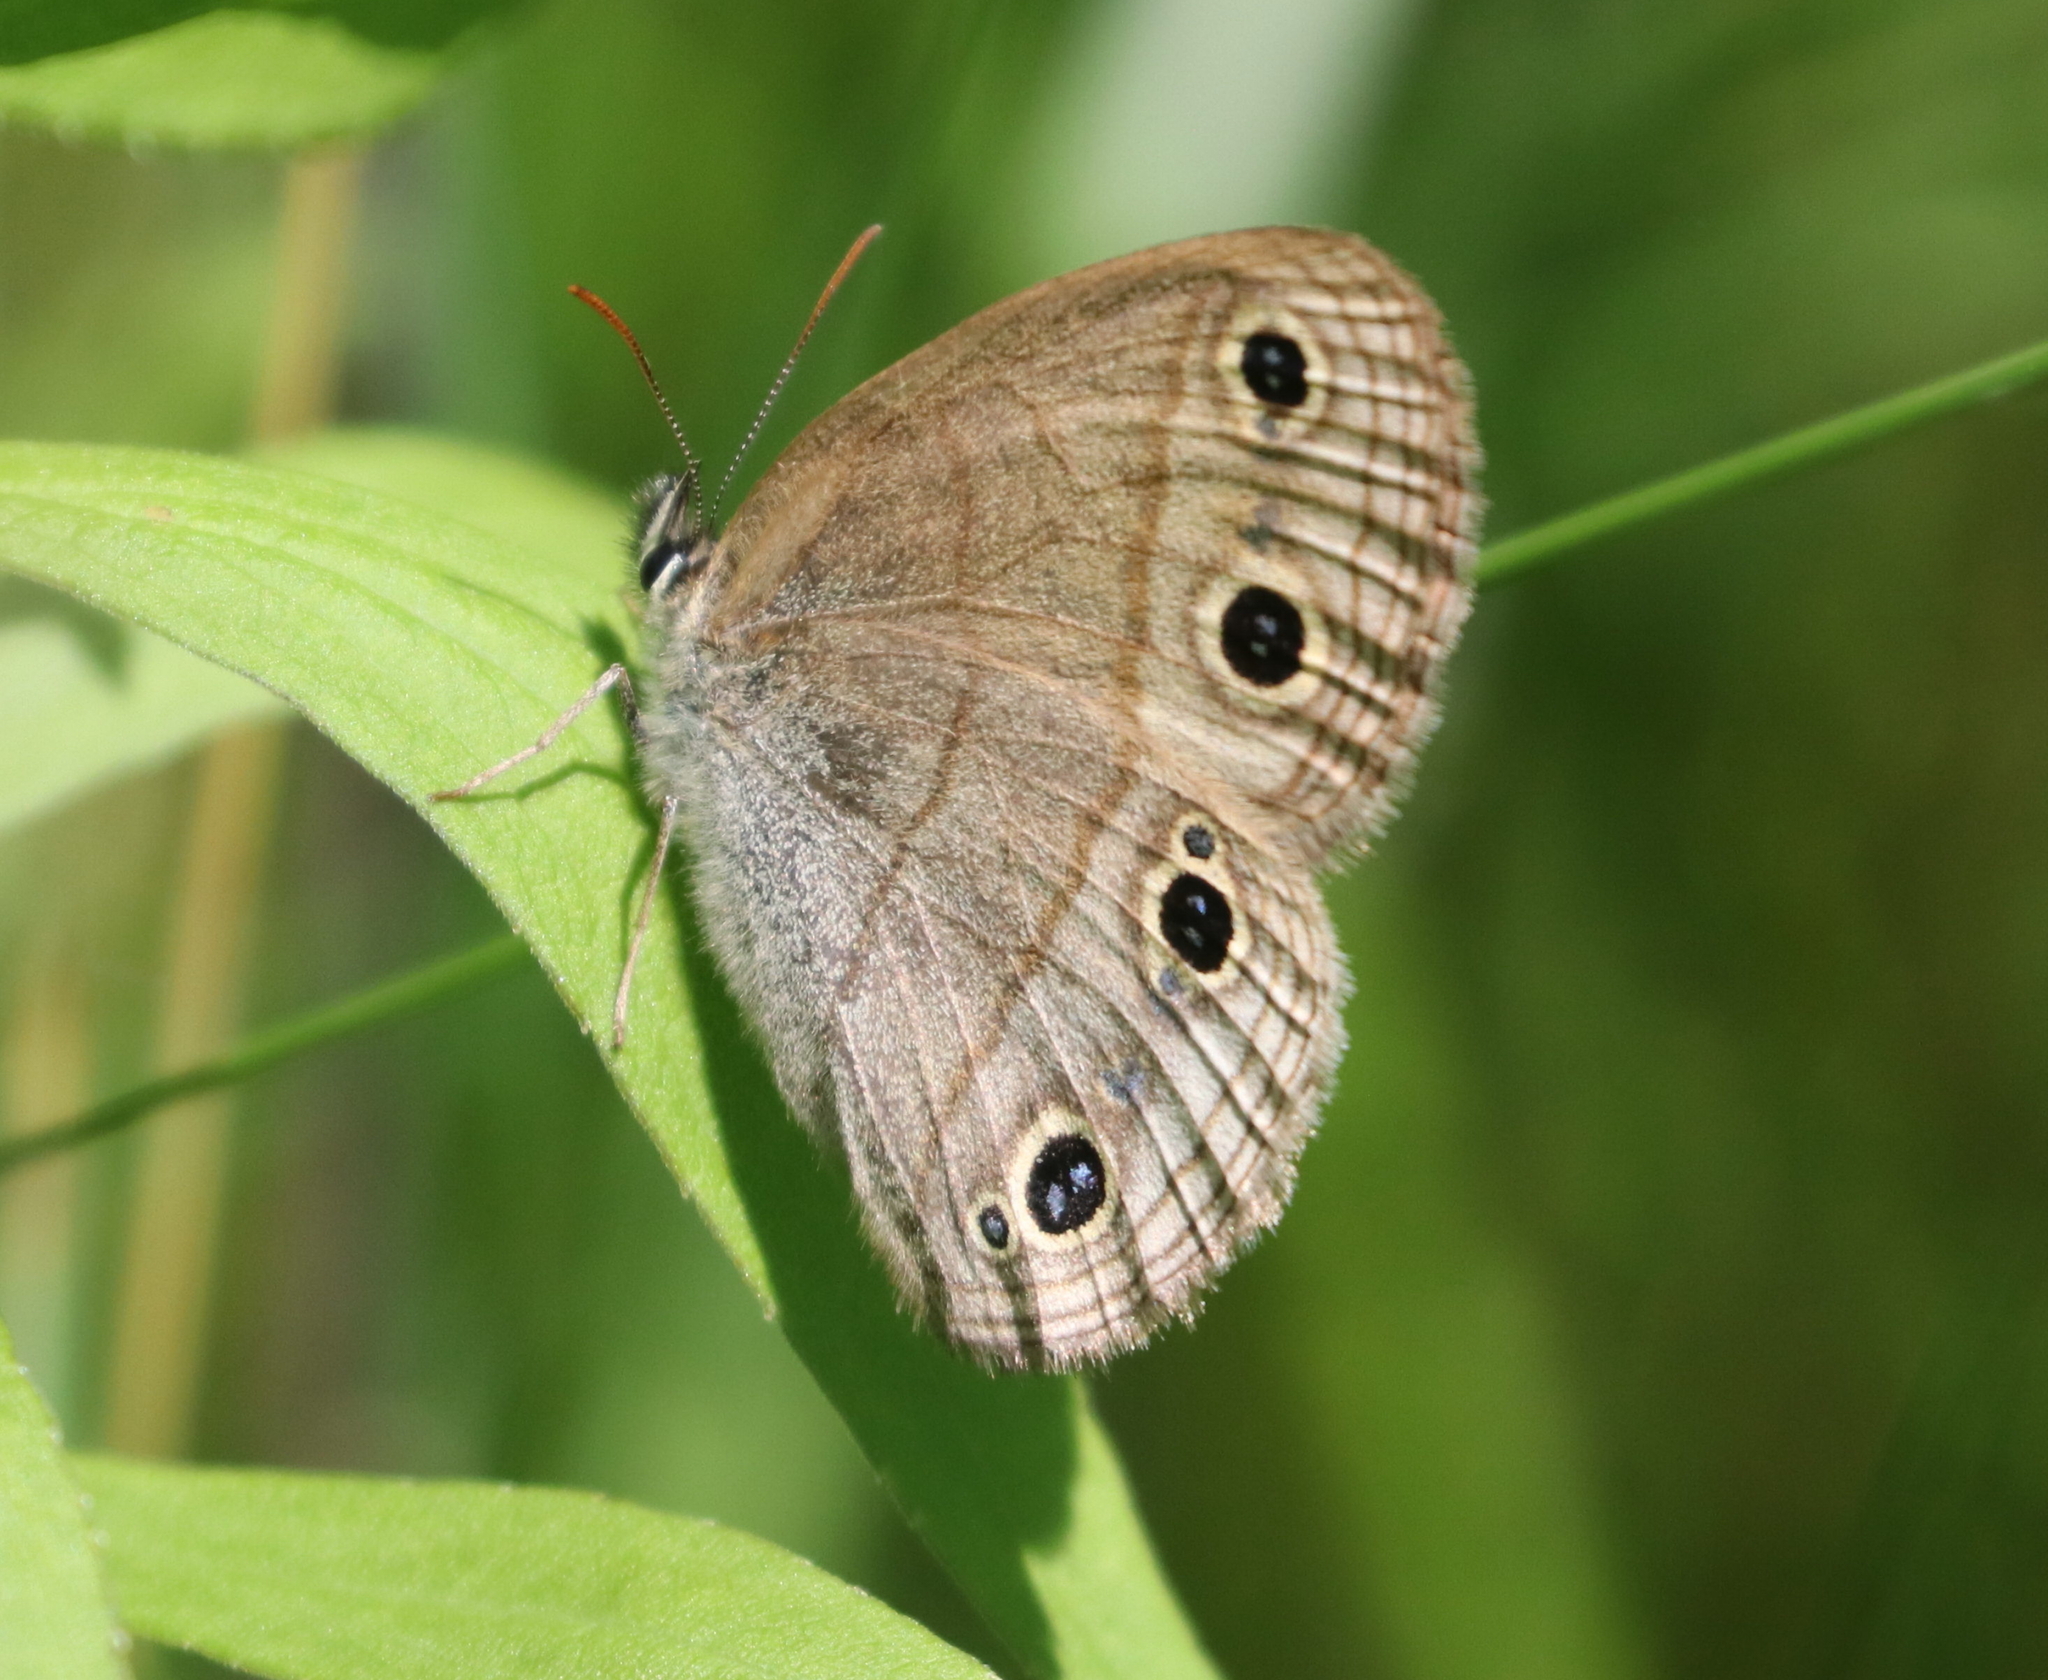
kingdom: Animalia
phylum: Arthropoda
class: Insecta
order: Lepidoptera
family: Nymphalidae
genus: Euptychia
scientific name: Euptychia cymela
